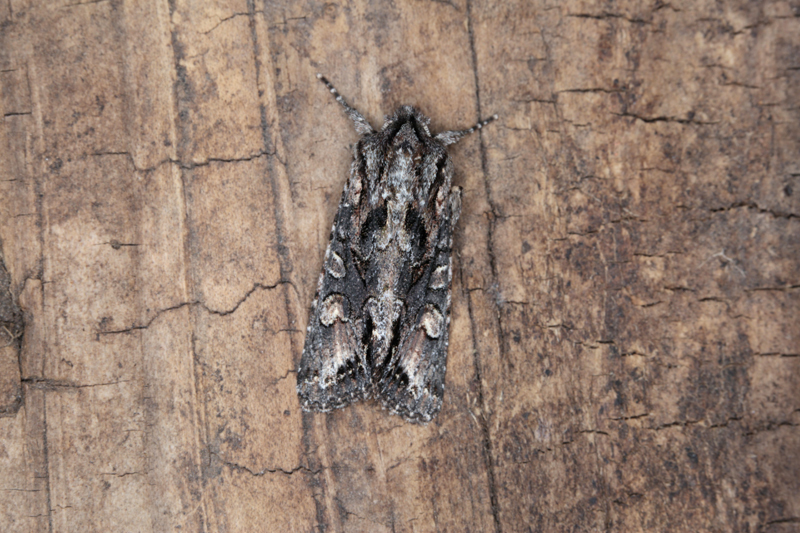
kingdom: Animalia
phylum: Arthropoda
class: Insecta
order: Lepidoptera
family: Noctuidae
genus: Ichneutica
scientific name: Ichneutica
